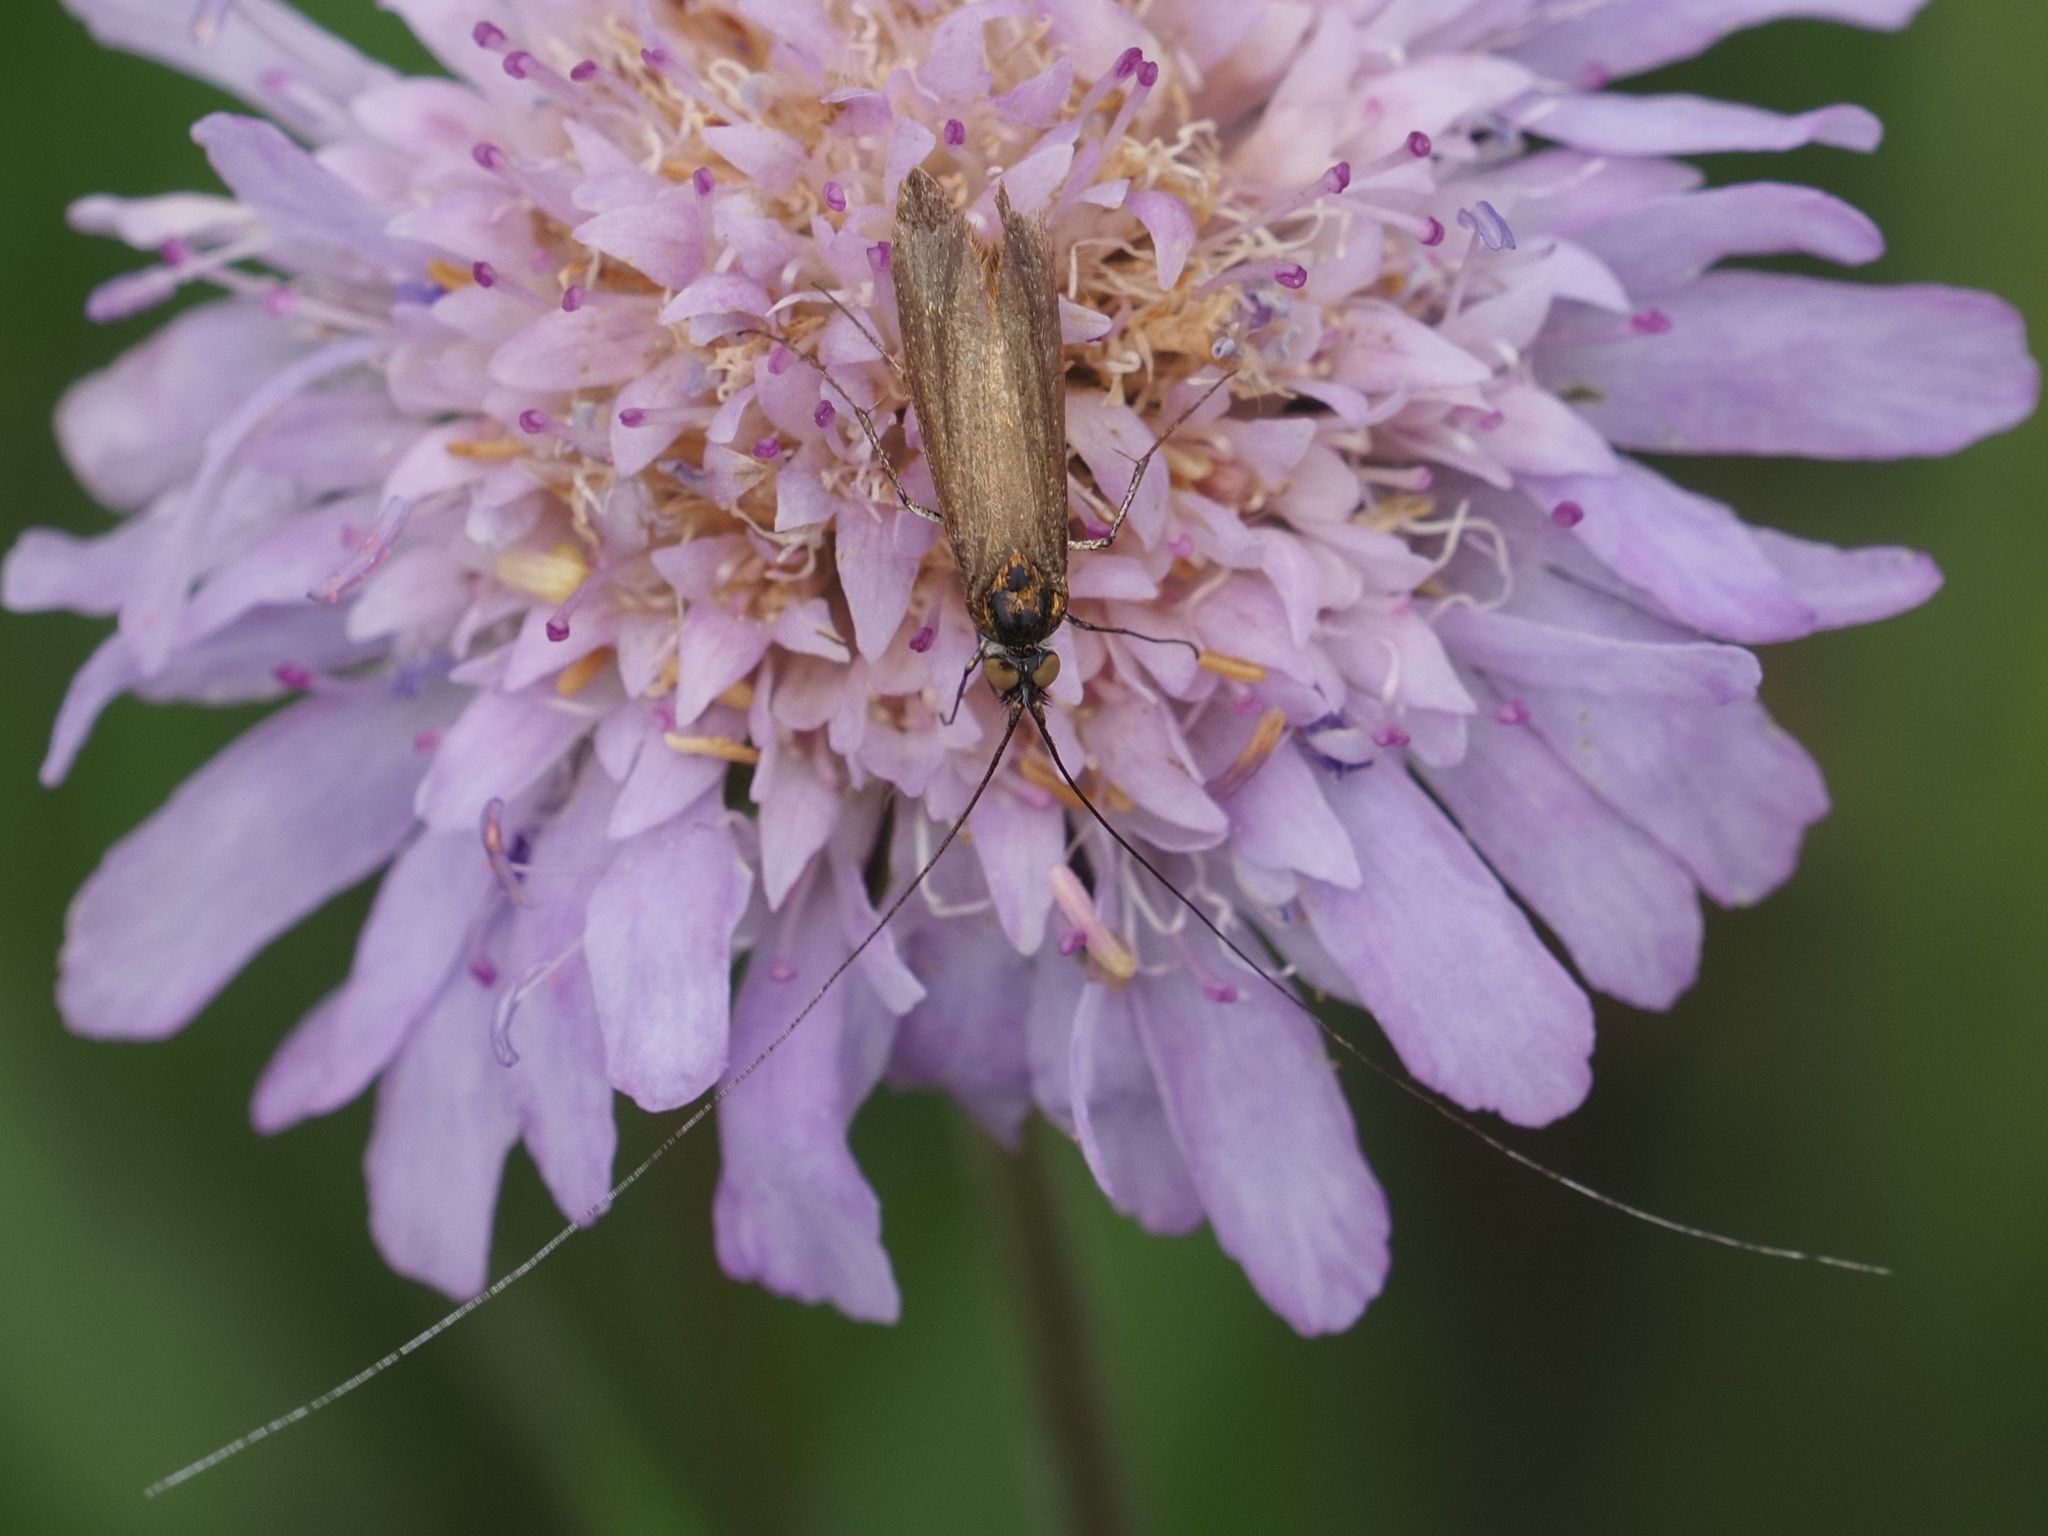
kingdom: Animalia
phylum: Arthropoda
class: Insecta
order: Lepidoptera
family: Adelidae
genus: Nemophora
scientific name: Nemophora metallica
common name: Brassy long-horn
